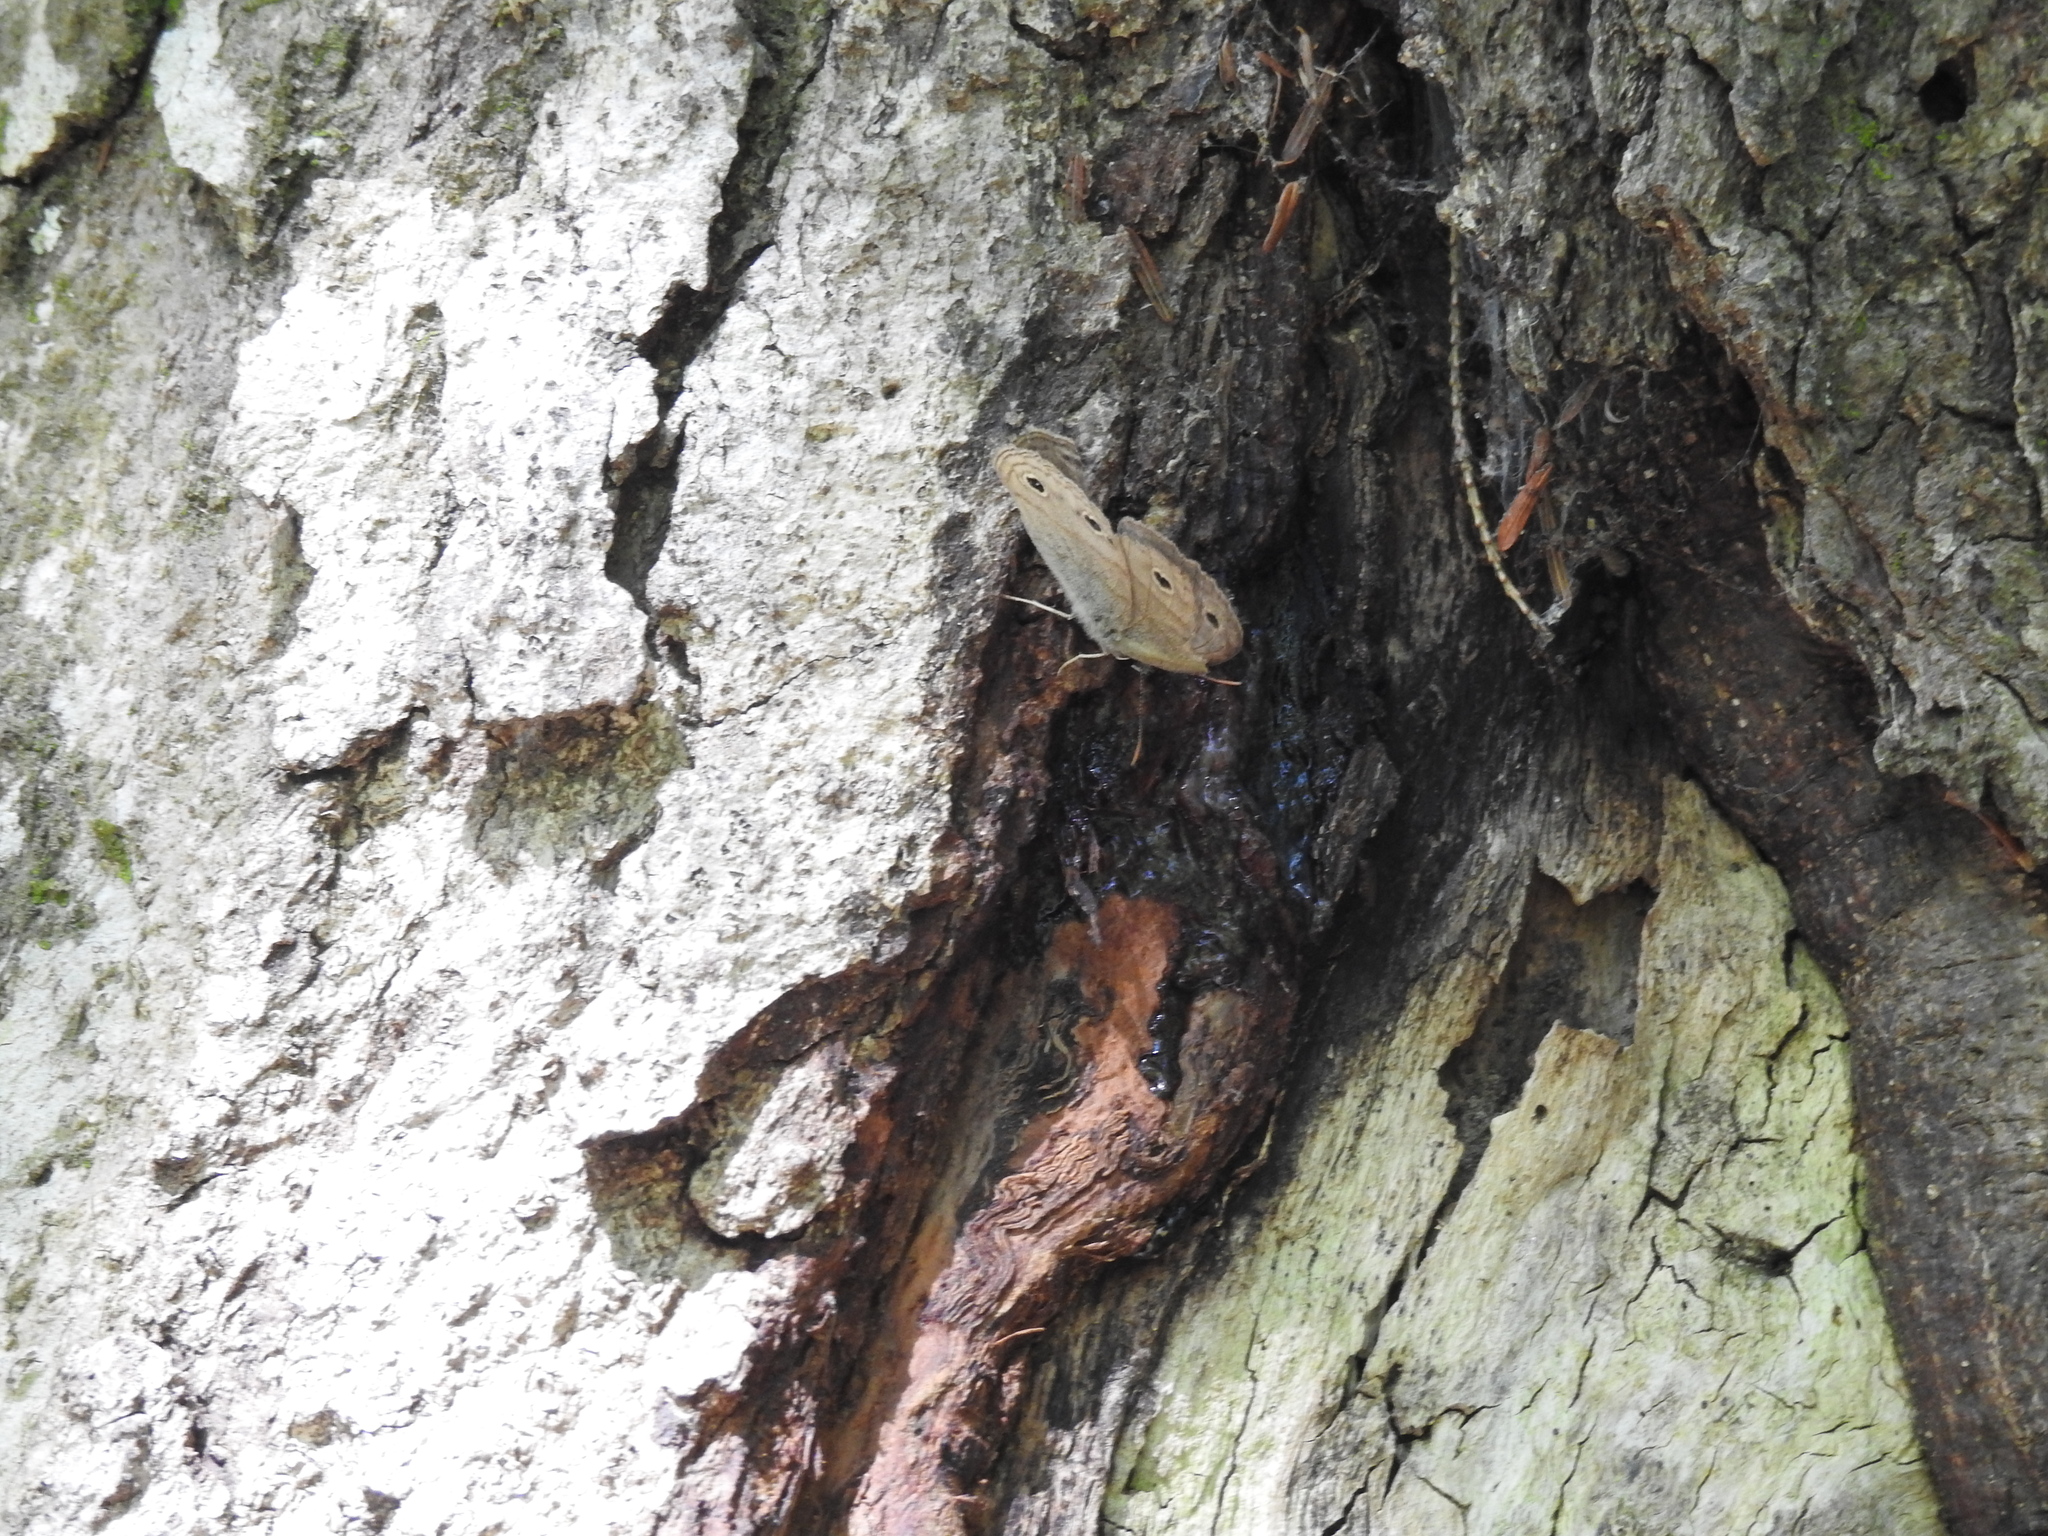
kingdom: Animalia
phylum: Arthropoda
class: Insecta
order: Lepidoptera
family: Nymphalidae
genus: Euptychia
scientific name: Euptychia cymela
